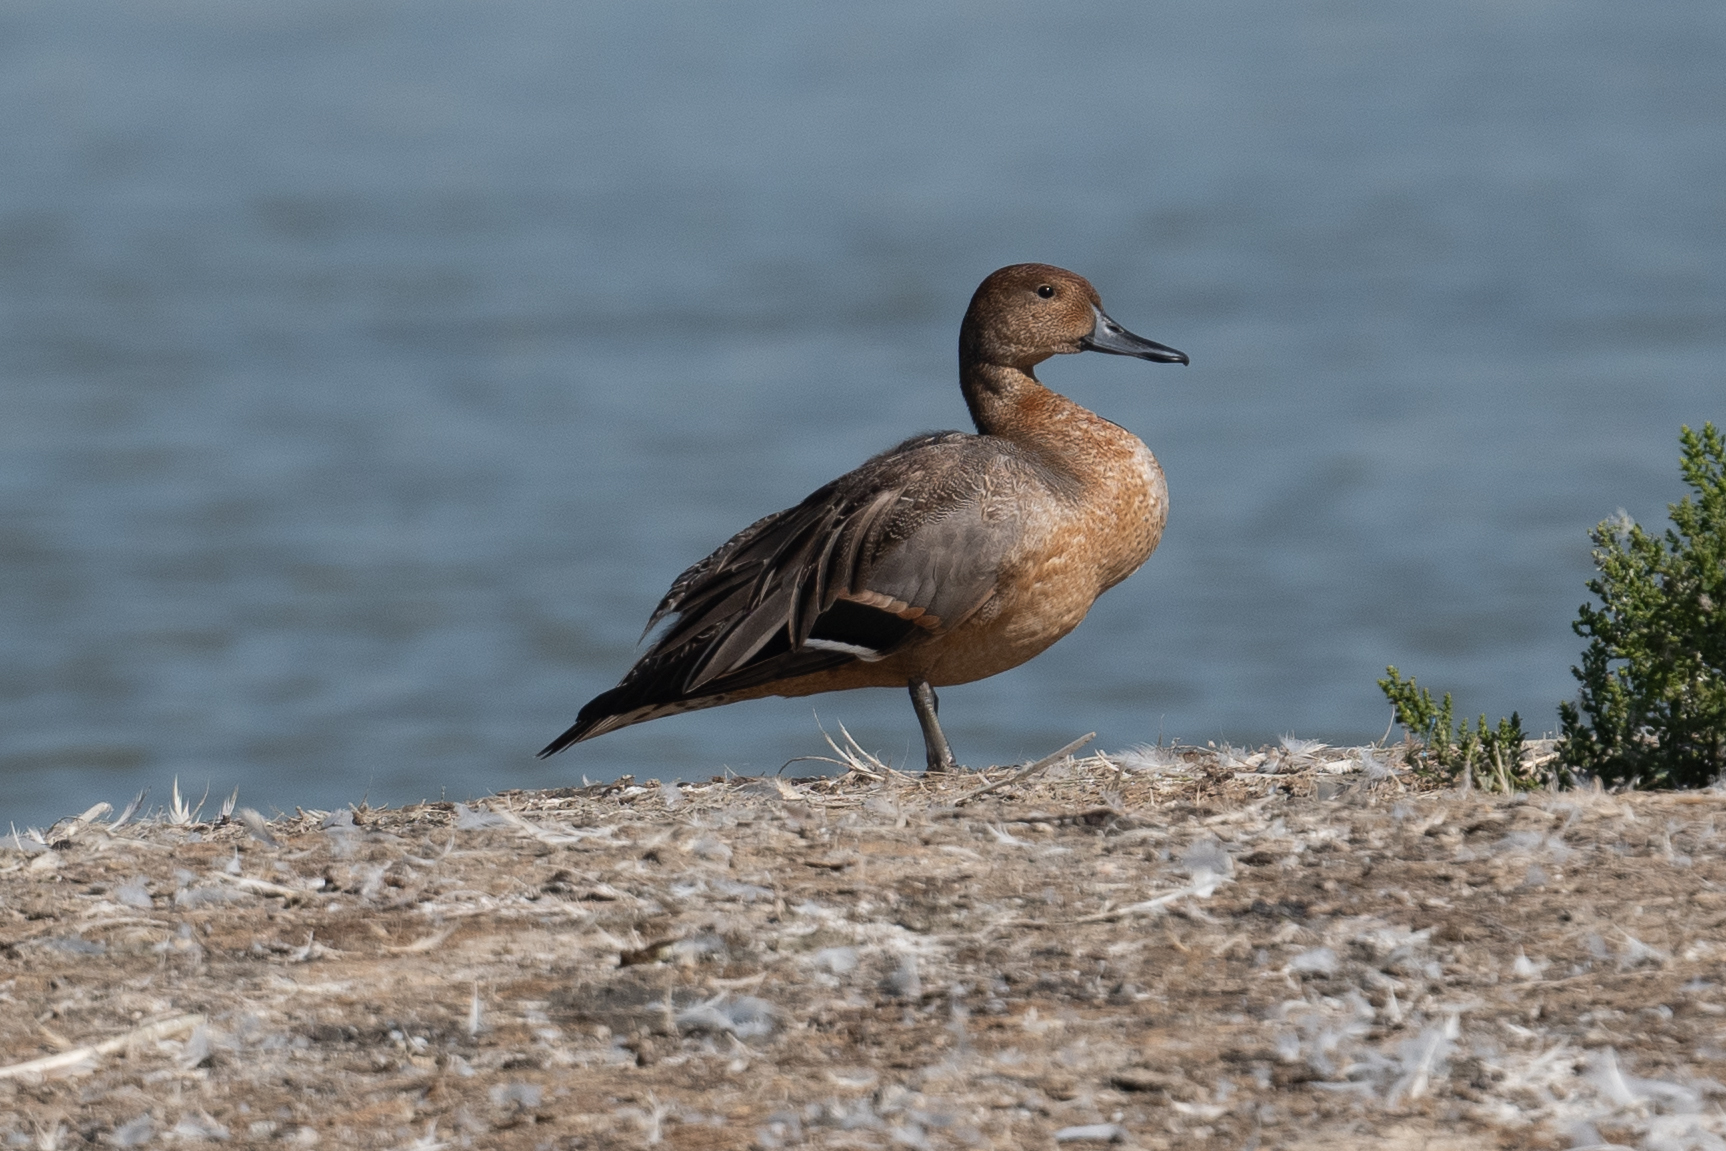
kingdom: Animalia
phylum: Chordata
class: Aves
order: Anseriformes
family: Anatidae
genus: Anas
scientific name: Anas acuta
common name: Northern pintail
